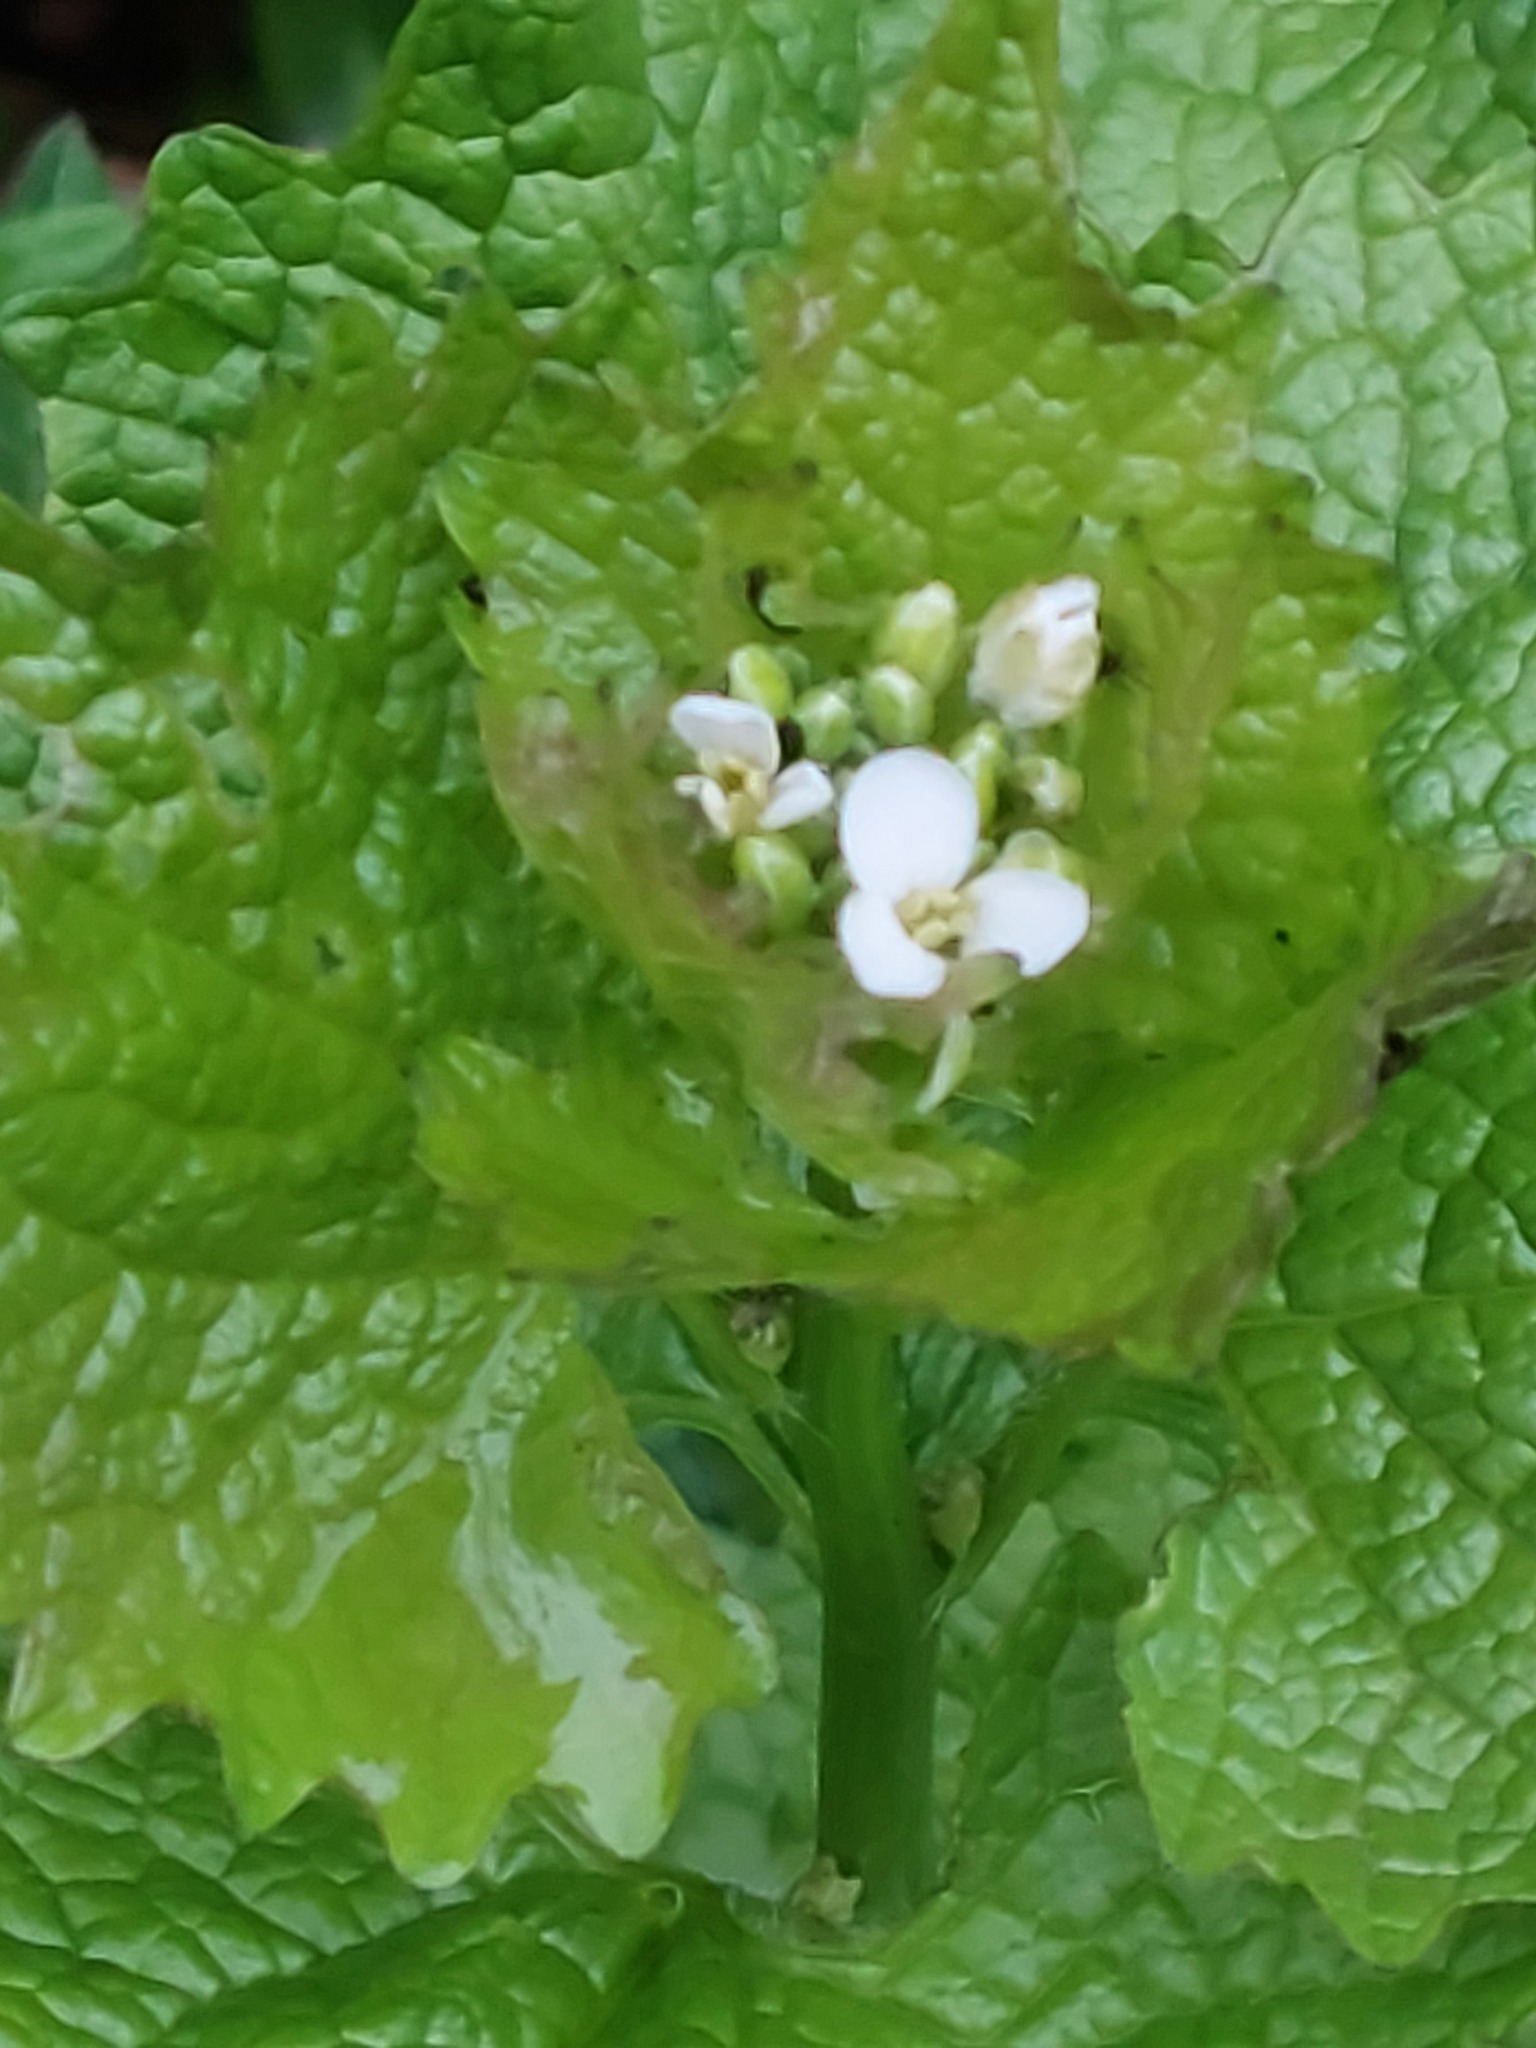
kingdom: Plantae
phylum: Tracheophyta
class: Magnoliopsida
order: Brassicales
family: Brassicaceae
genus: Alliaria
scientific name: Alliaria petiolata
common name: Garlic mustard
